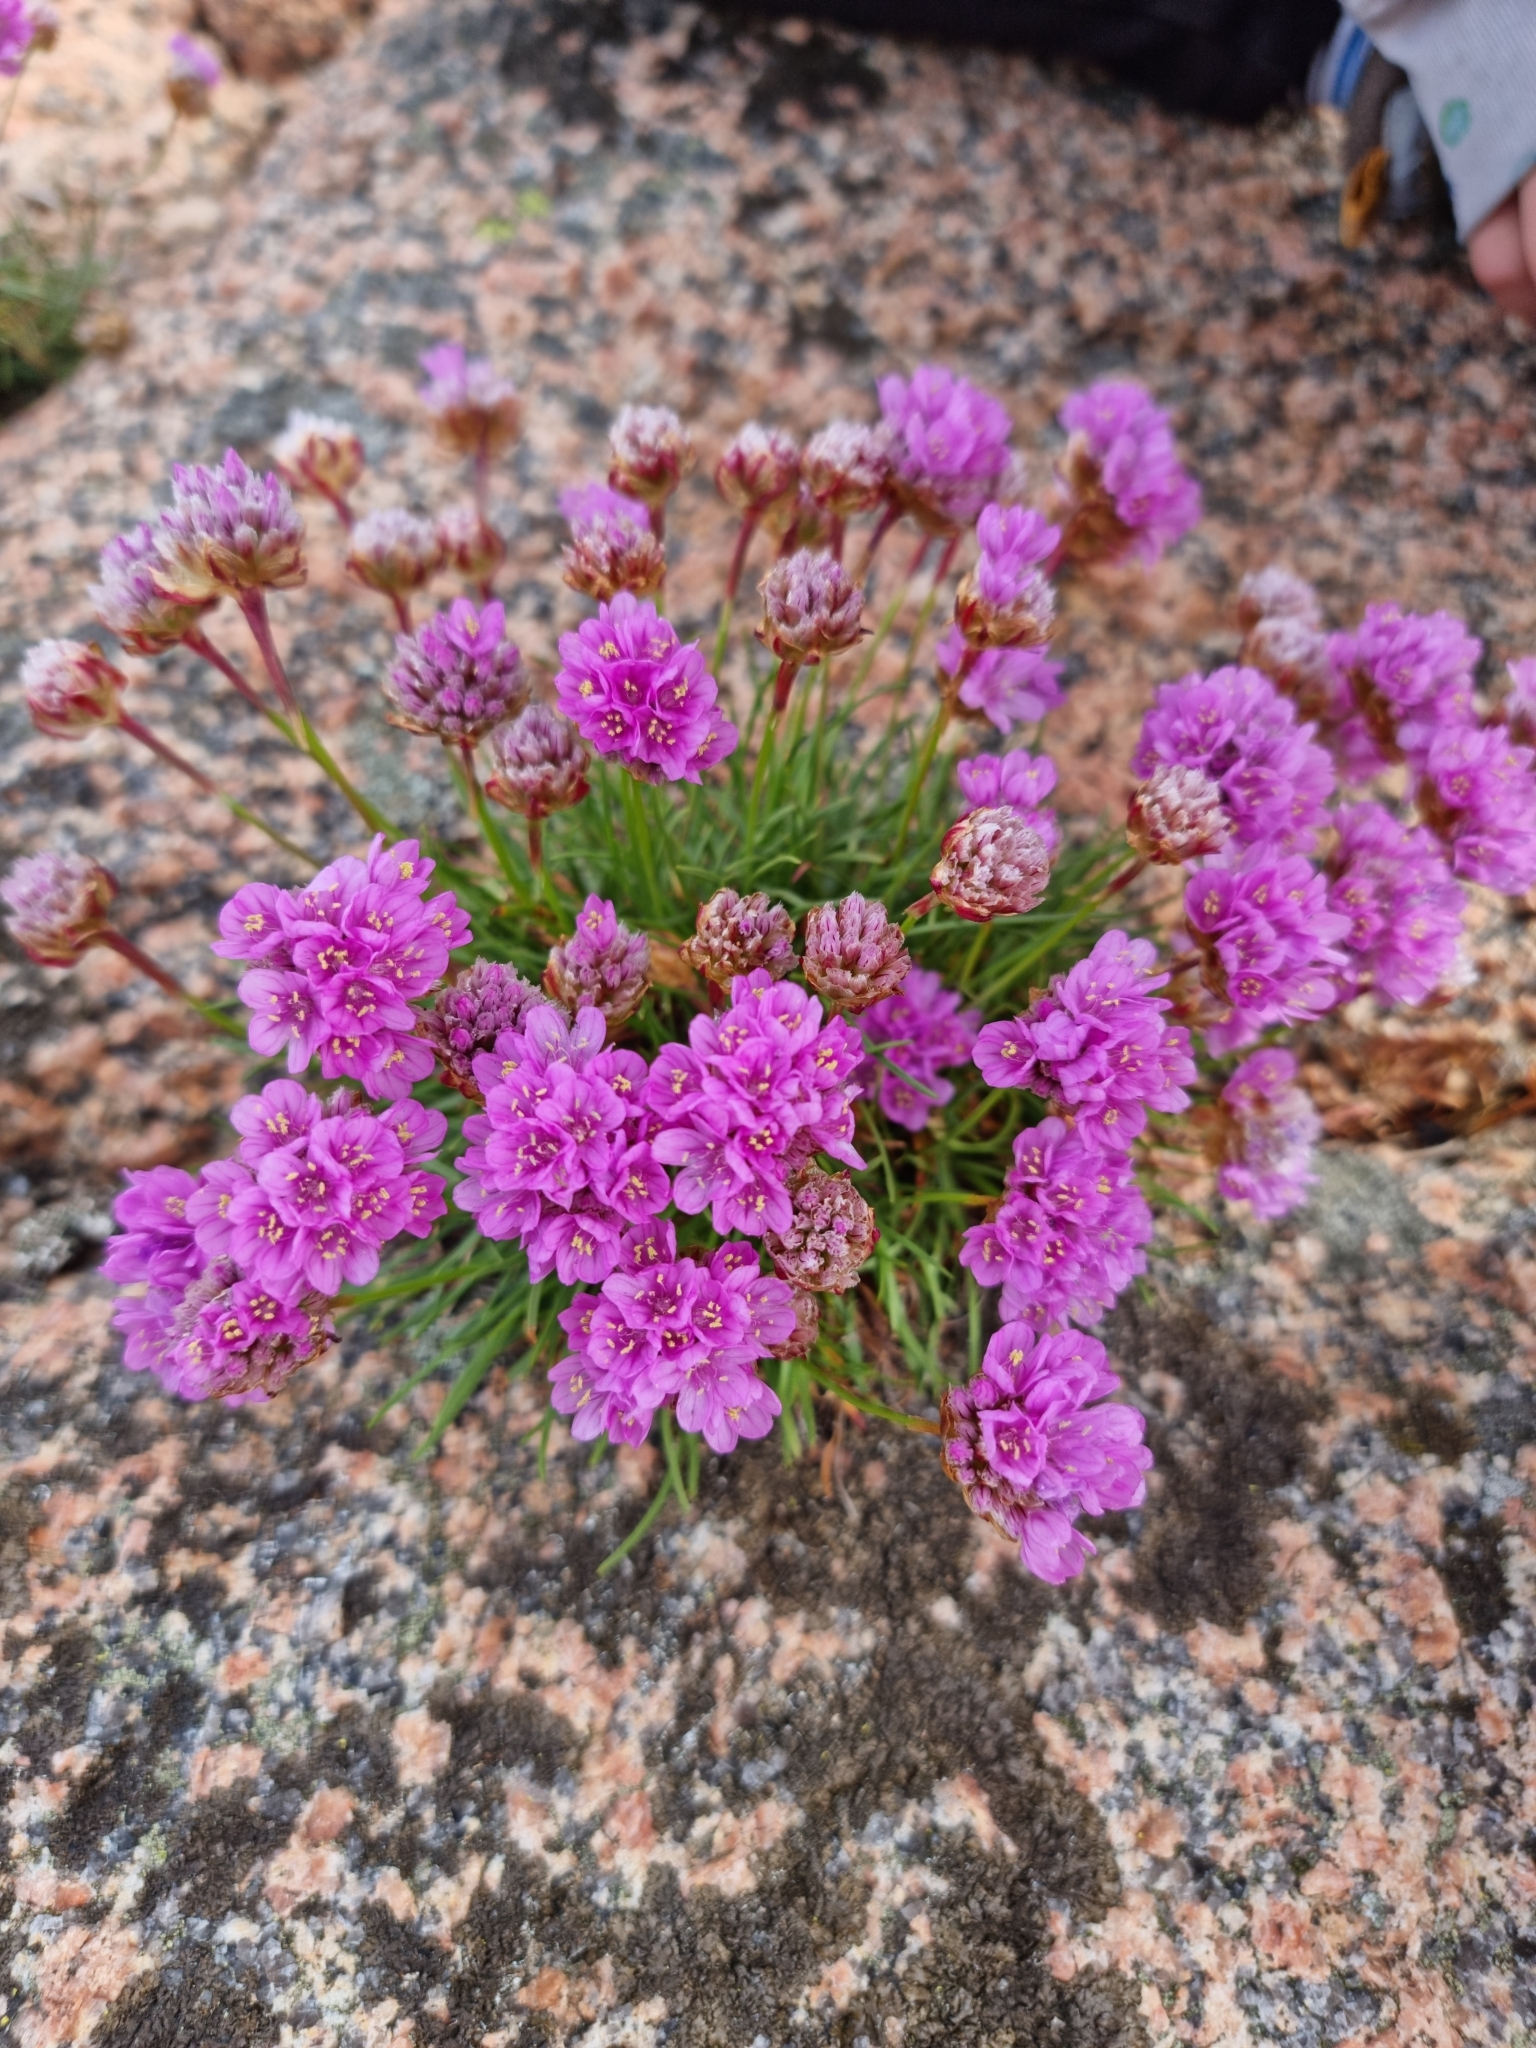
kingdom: Plantae
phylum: Tracheophyta
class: Magnoliopsida
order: Caryophyllales
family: Plumbaginaceae
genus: Armeria
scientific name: Armeria maritima
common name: Thrift
